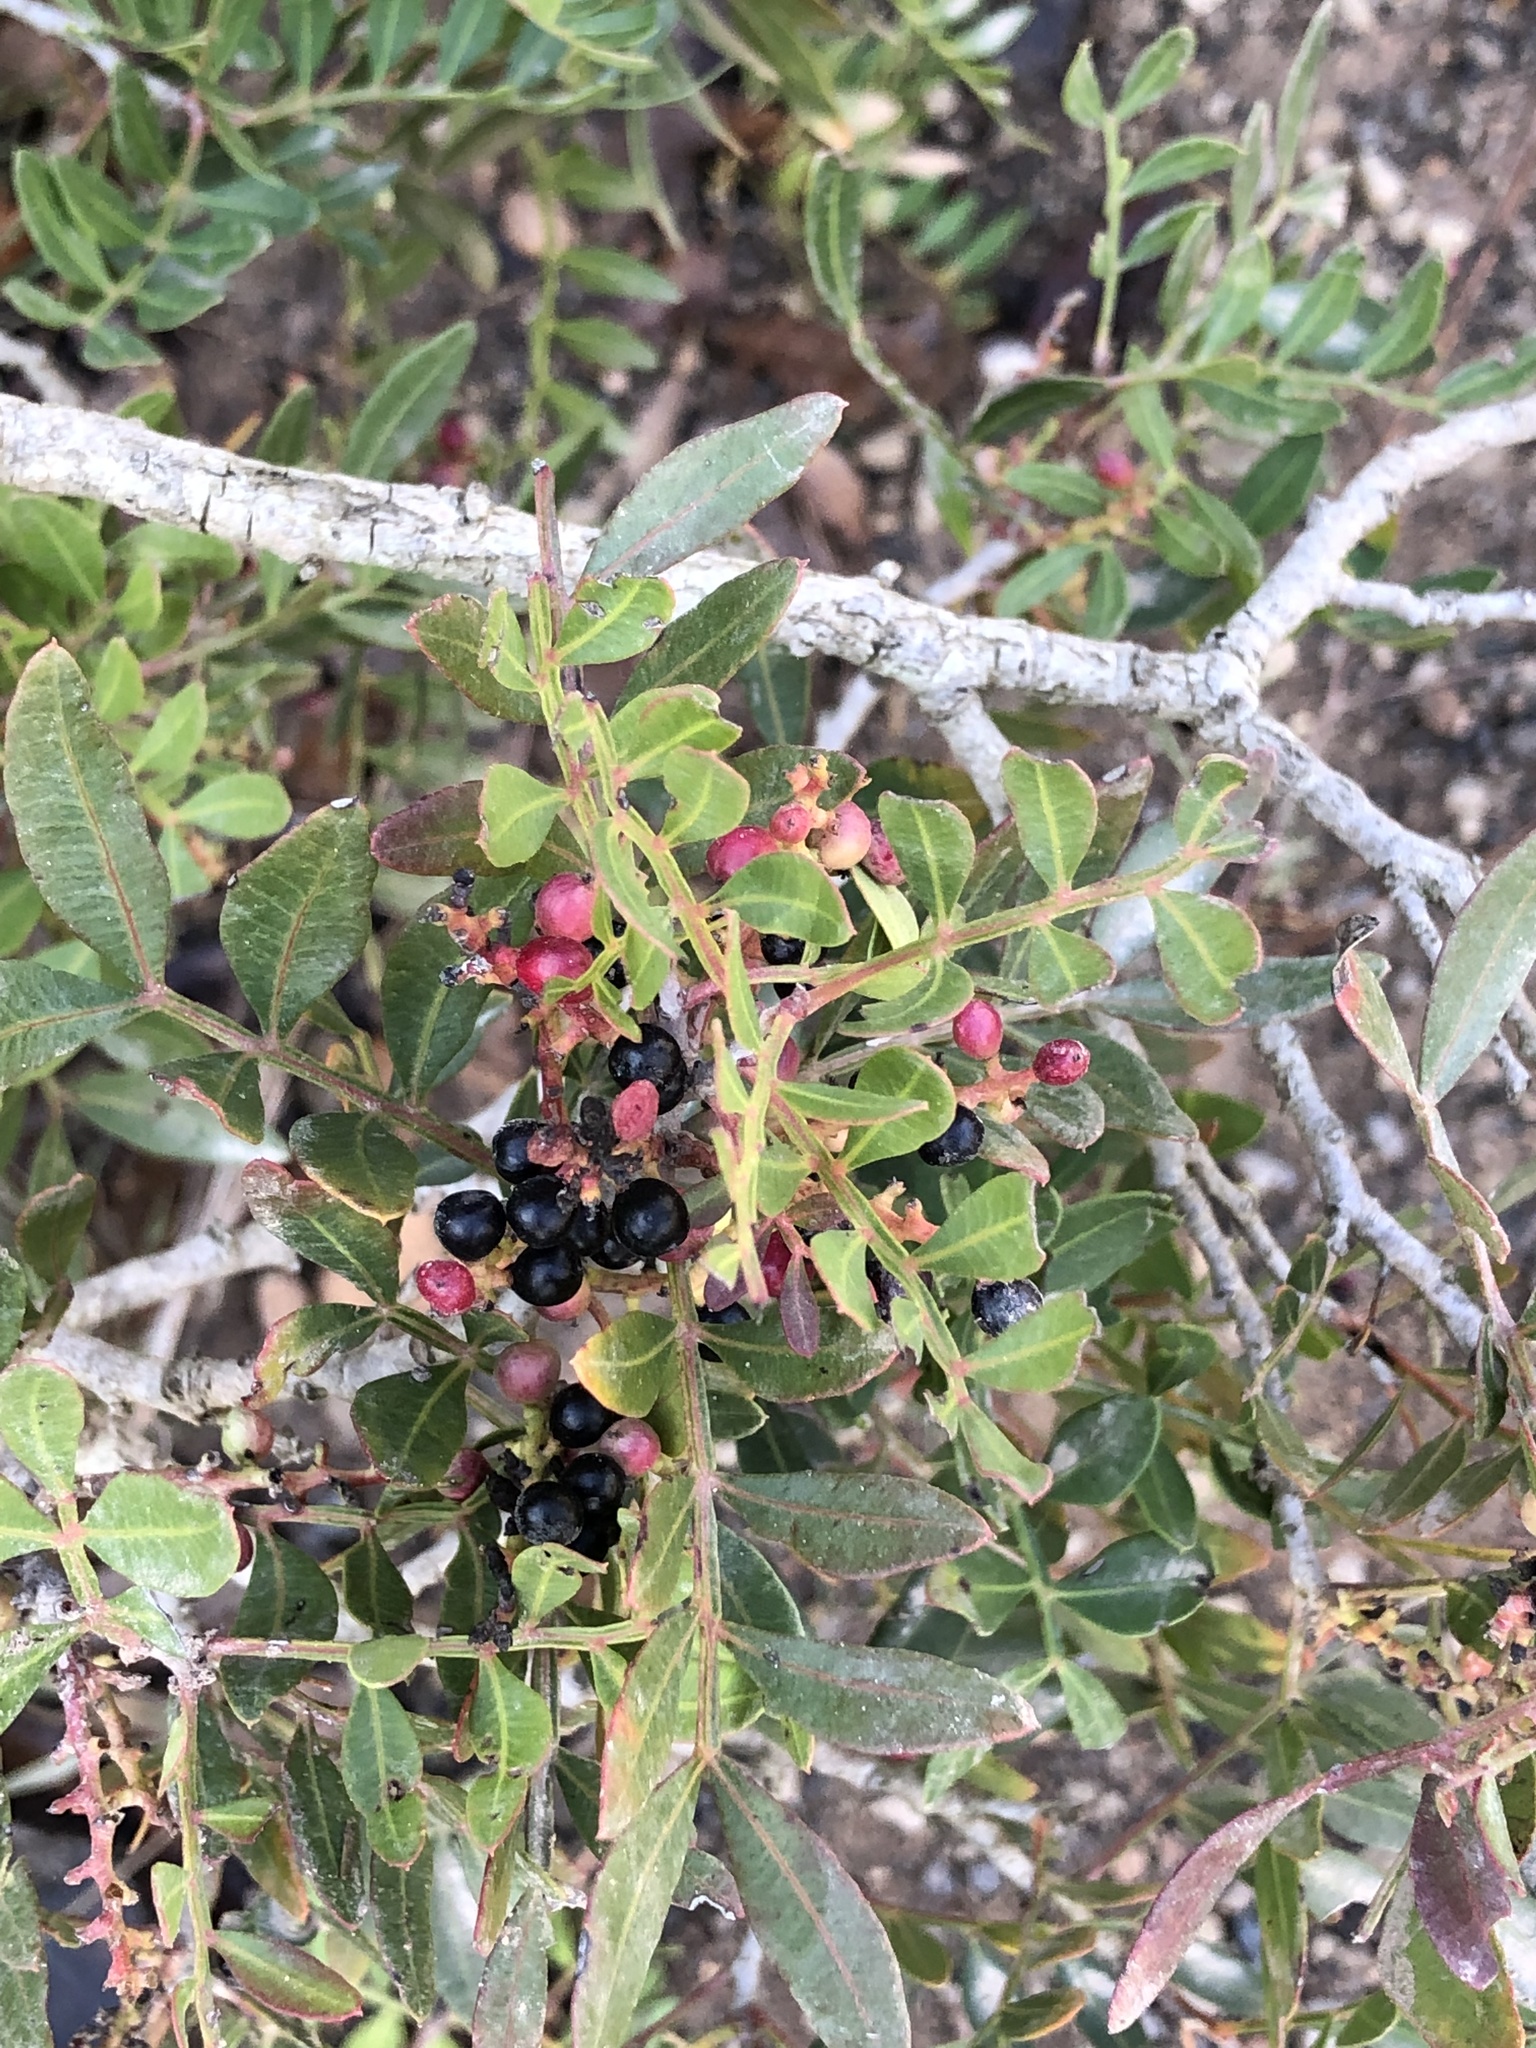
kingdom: Plantae
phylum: Tracheophyta
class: Magnoliopsida
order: Sapindales
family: Anacardiaceae
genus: Pistacia
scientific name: Pistacia lentiscus
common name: Lentisk
